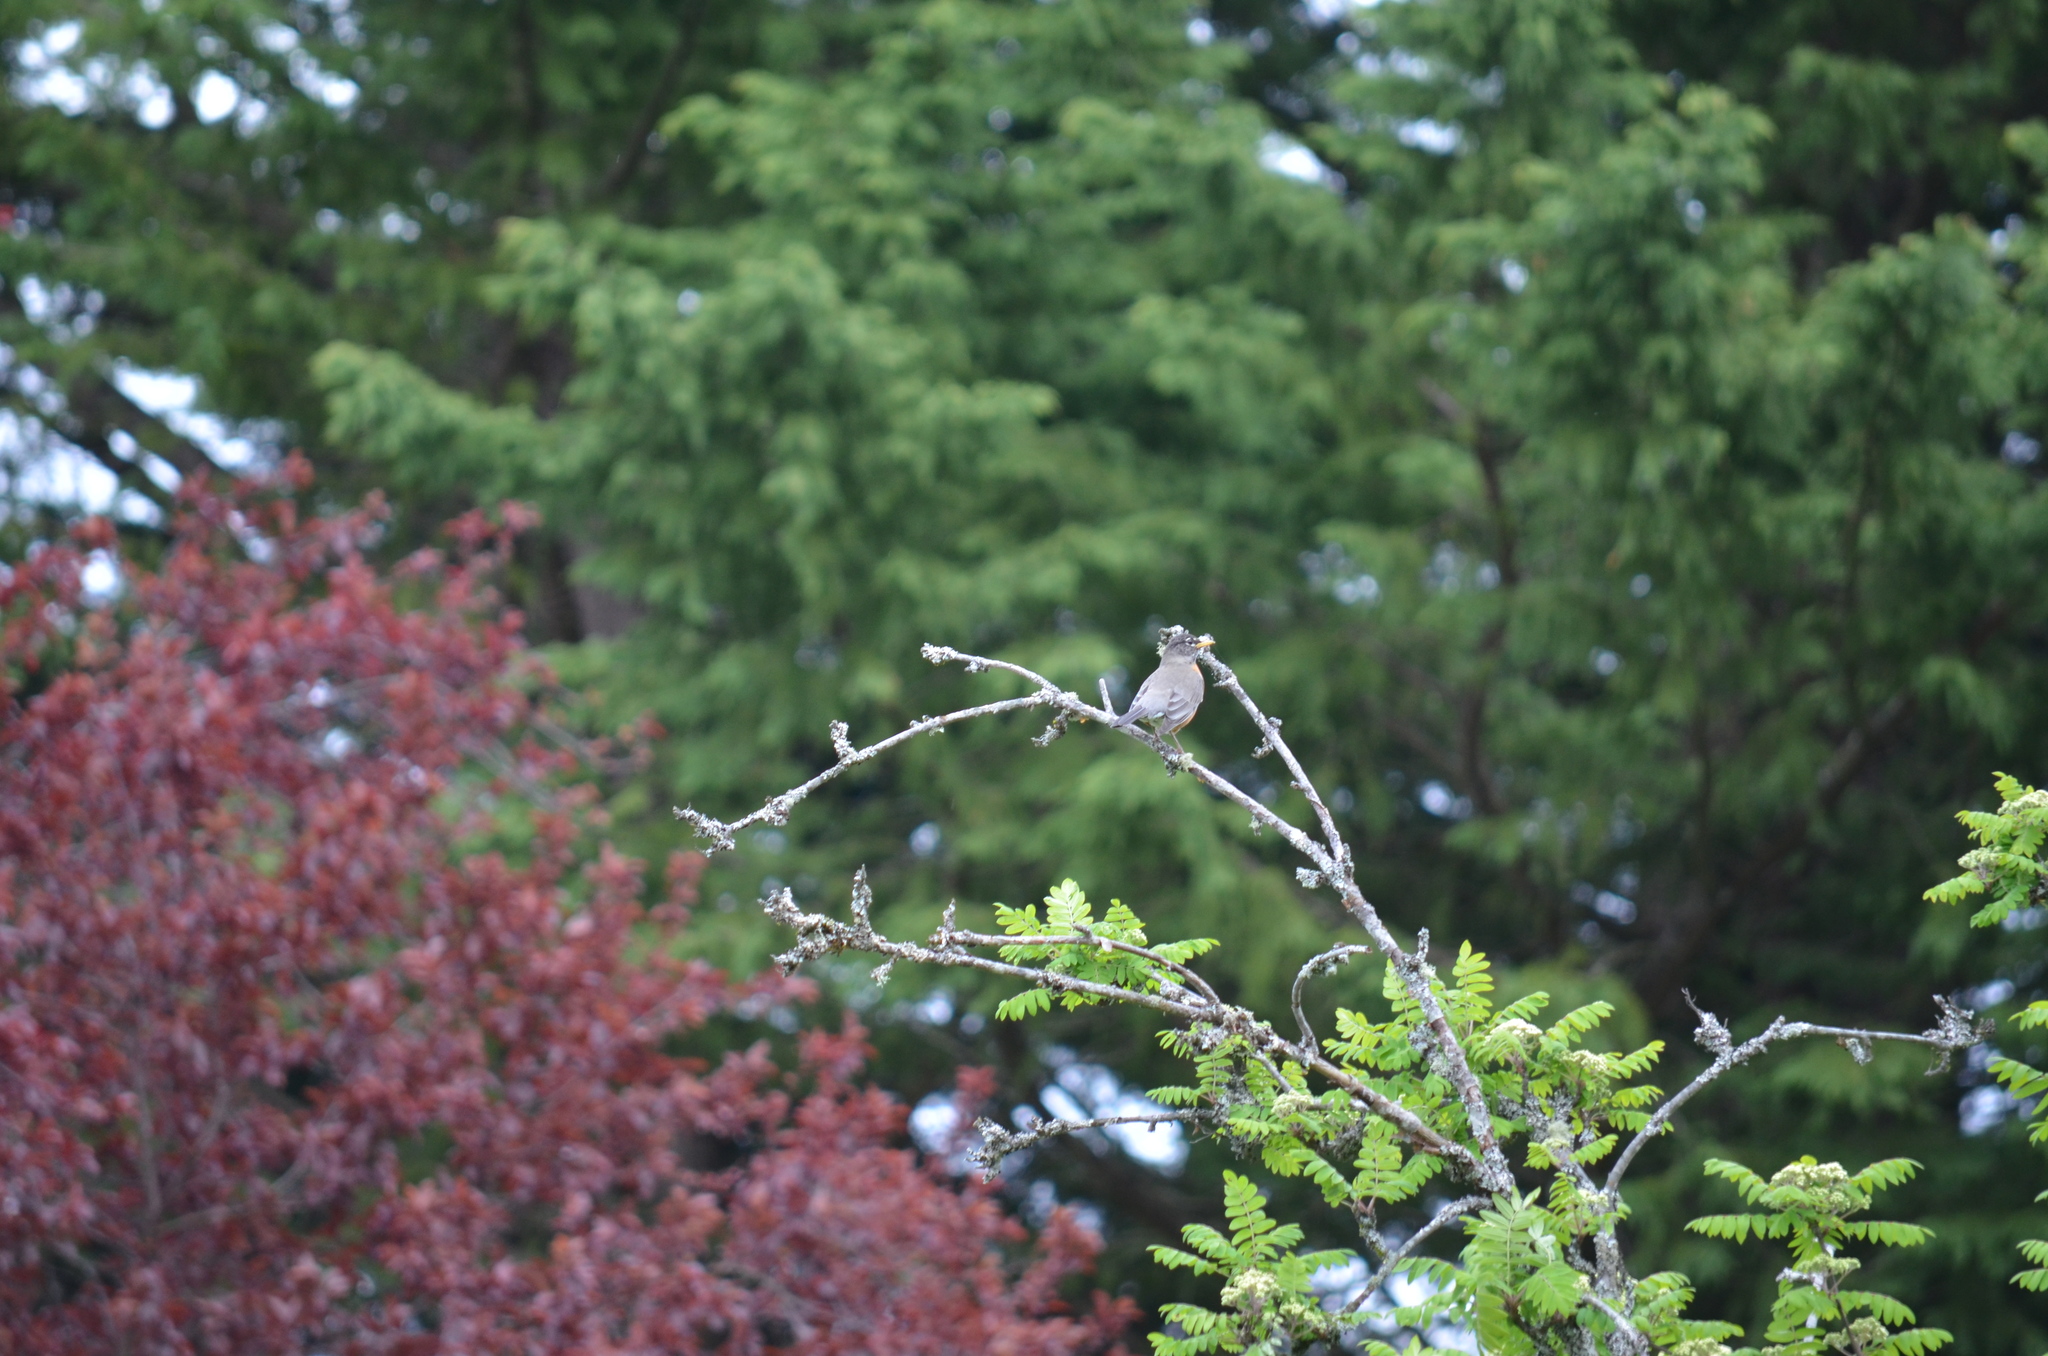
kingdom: Animalia
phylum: Chordata
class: Aves
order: Passeriformes
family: Turdidae
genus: Turdus
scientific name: Turdus migratorius
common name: American robin
